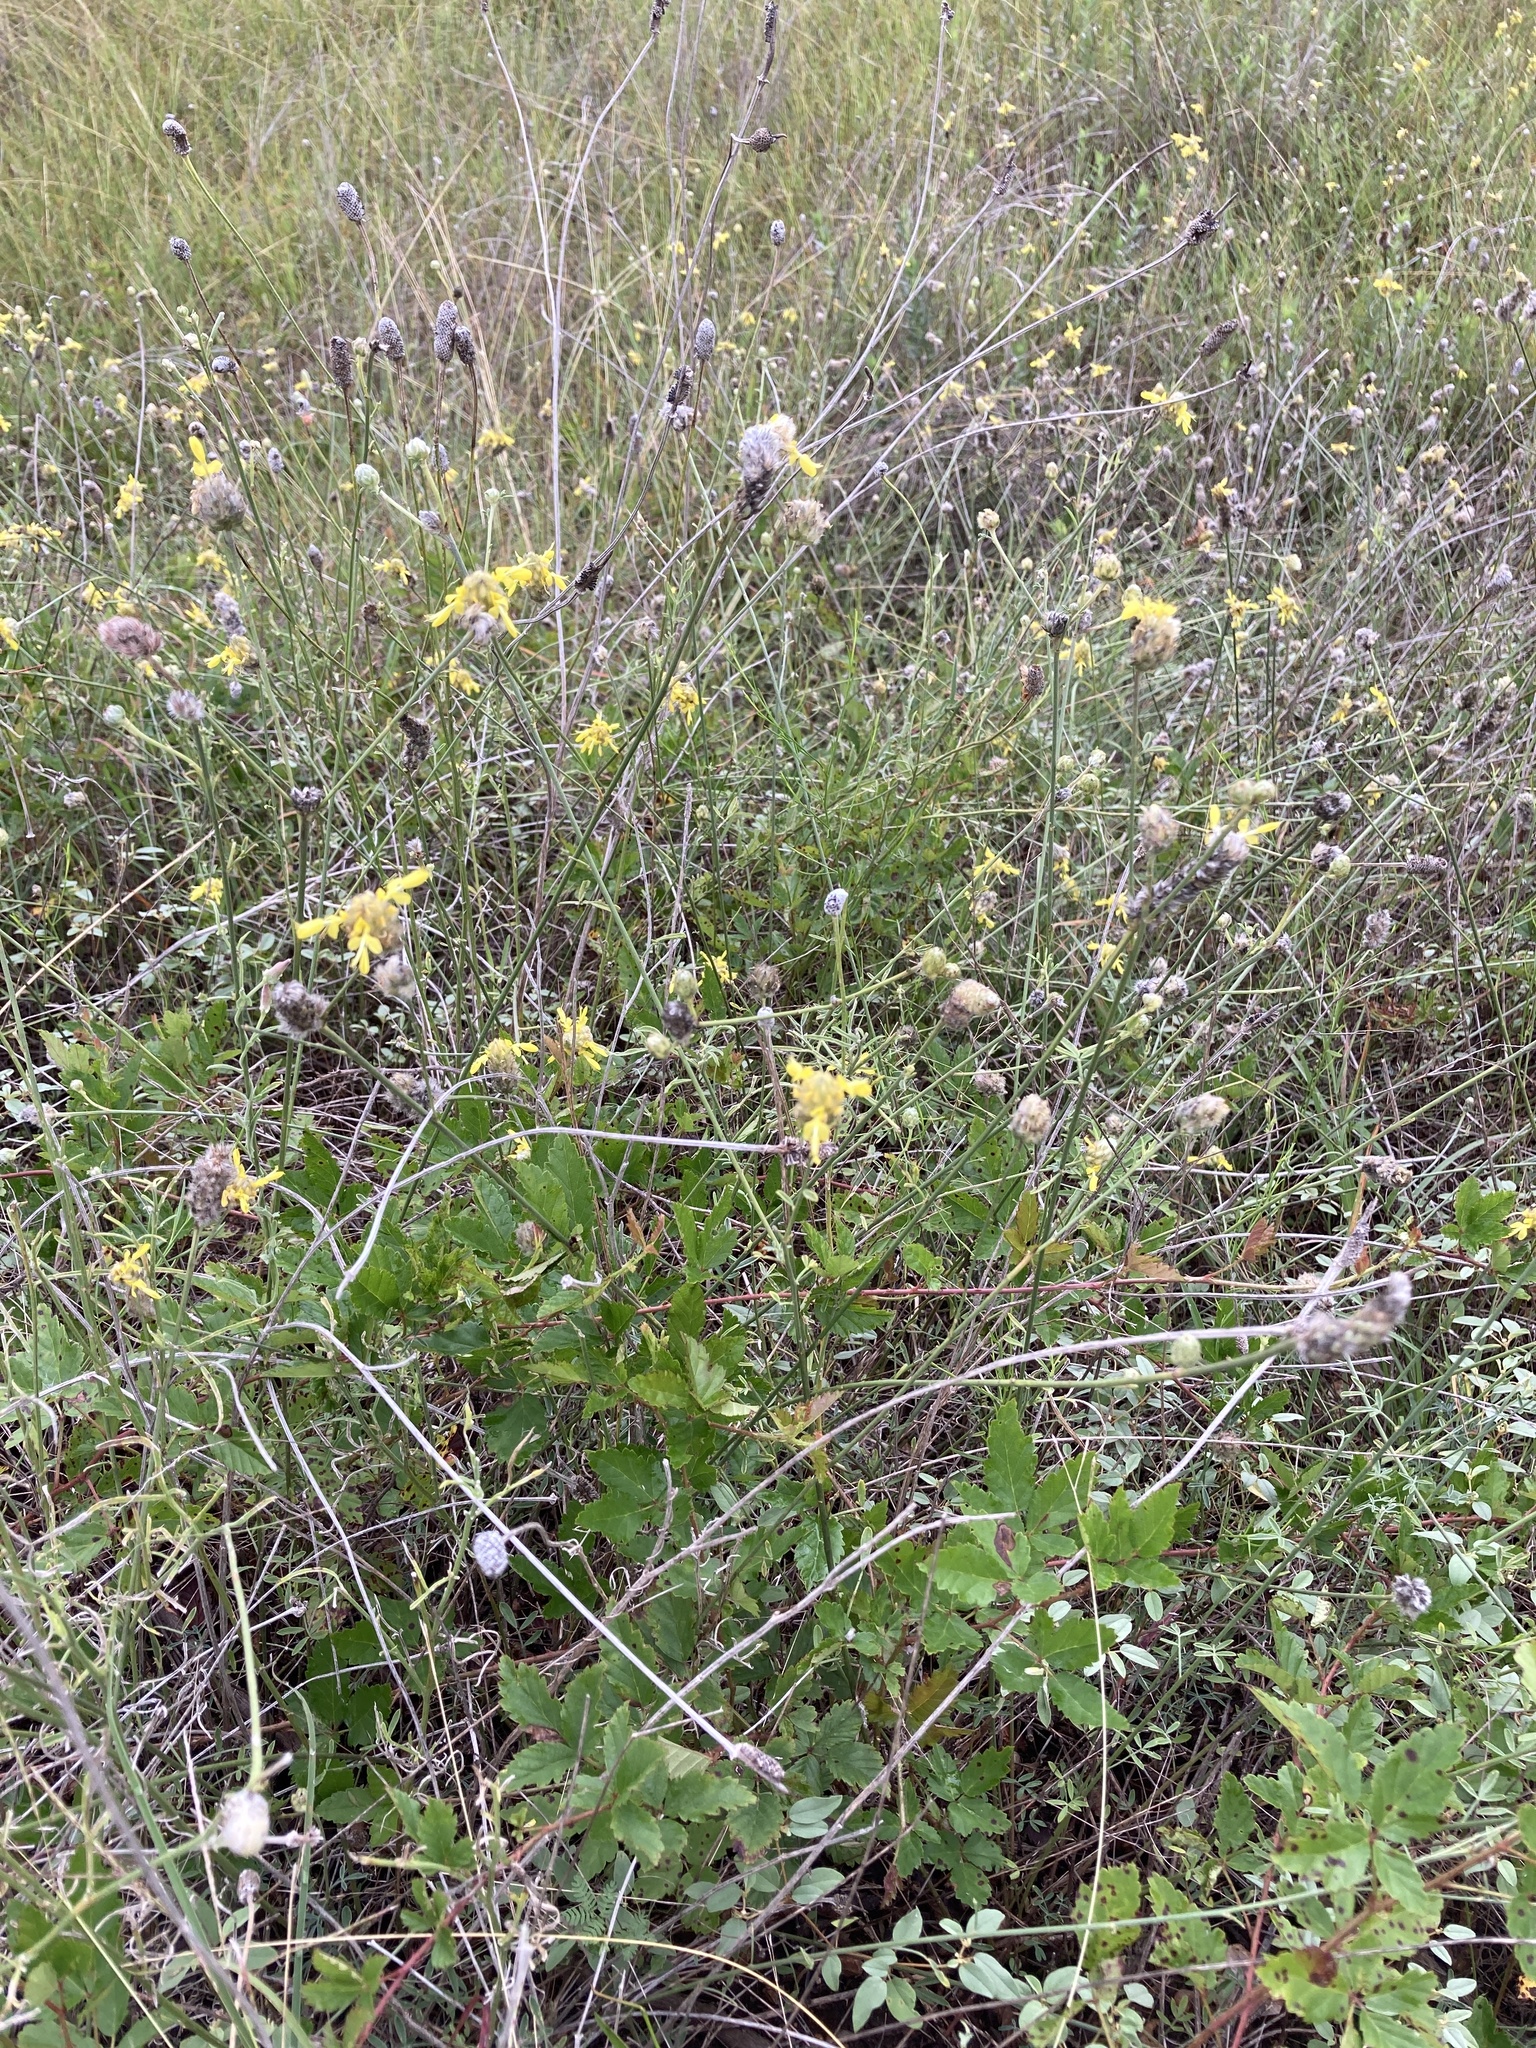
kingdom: Plantae
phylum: Tracheophyta
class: Magnoliopsida
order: Fabales
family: Fabaceae
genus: Dalea
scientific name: Dalea aurea
